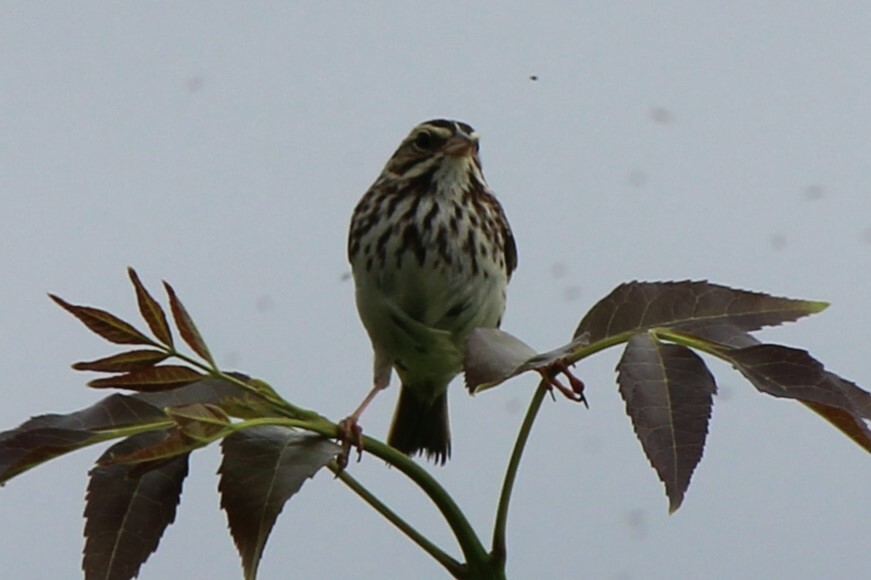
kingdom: Animalia
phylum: Chordata
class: Aves
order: Passeriformes
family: Passerellidae
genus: Passerculus
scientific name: Passerculus sandwichensis
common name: Savannah sparrow
